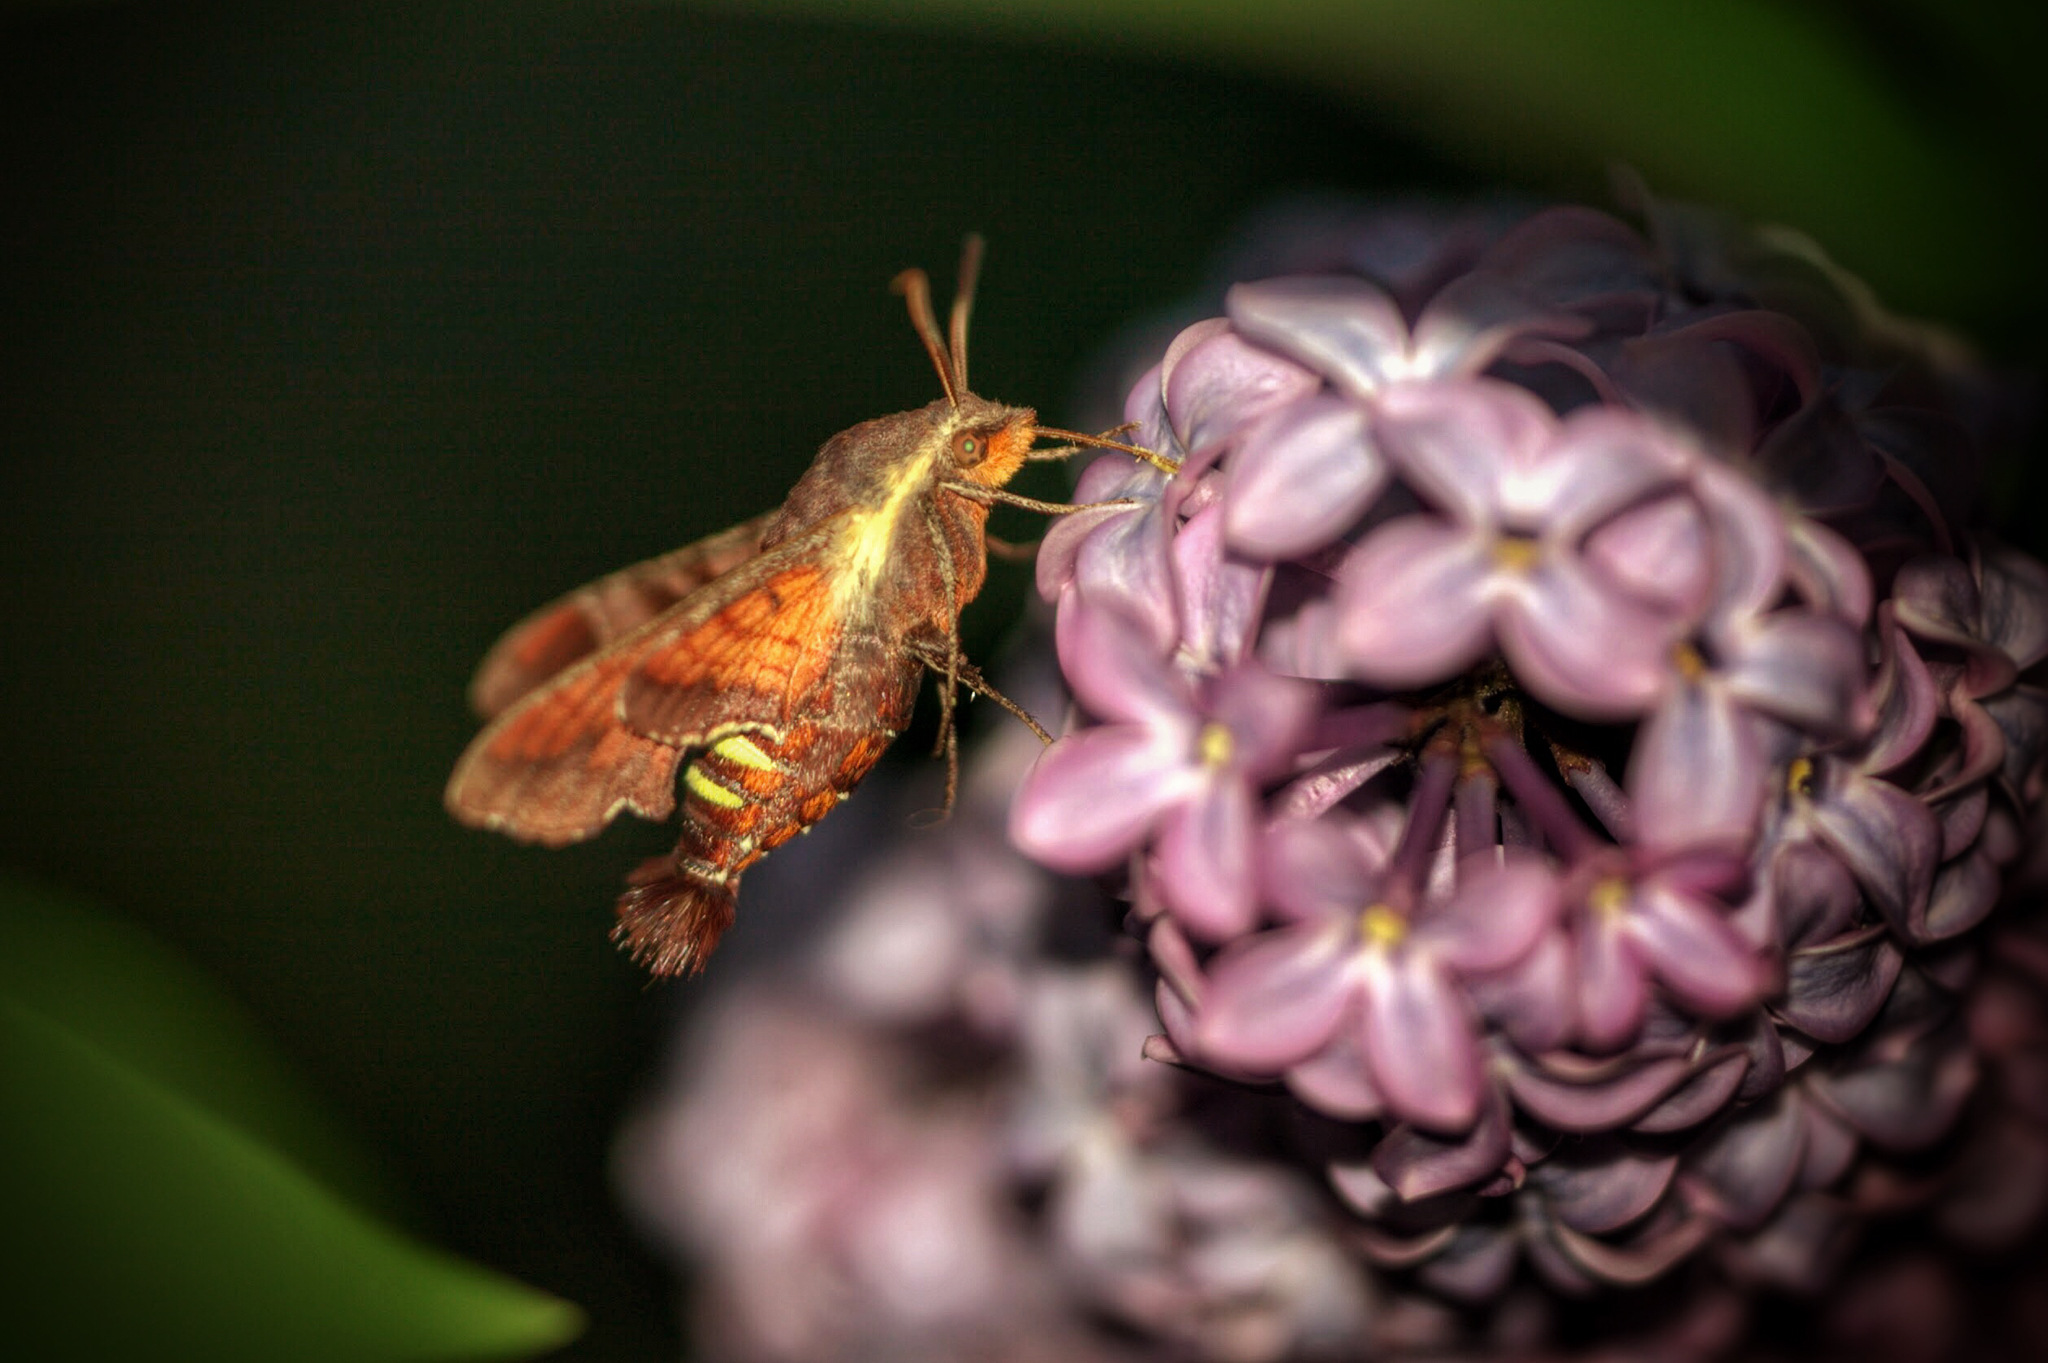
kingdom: Animalia
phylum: Arthropoda
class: Insecta
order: Lepidoptera
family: Sphingidae
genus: Amphion
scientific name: Amphion floridensis
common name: Nessus sphinx
